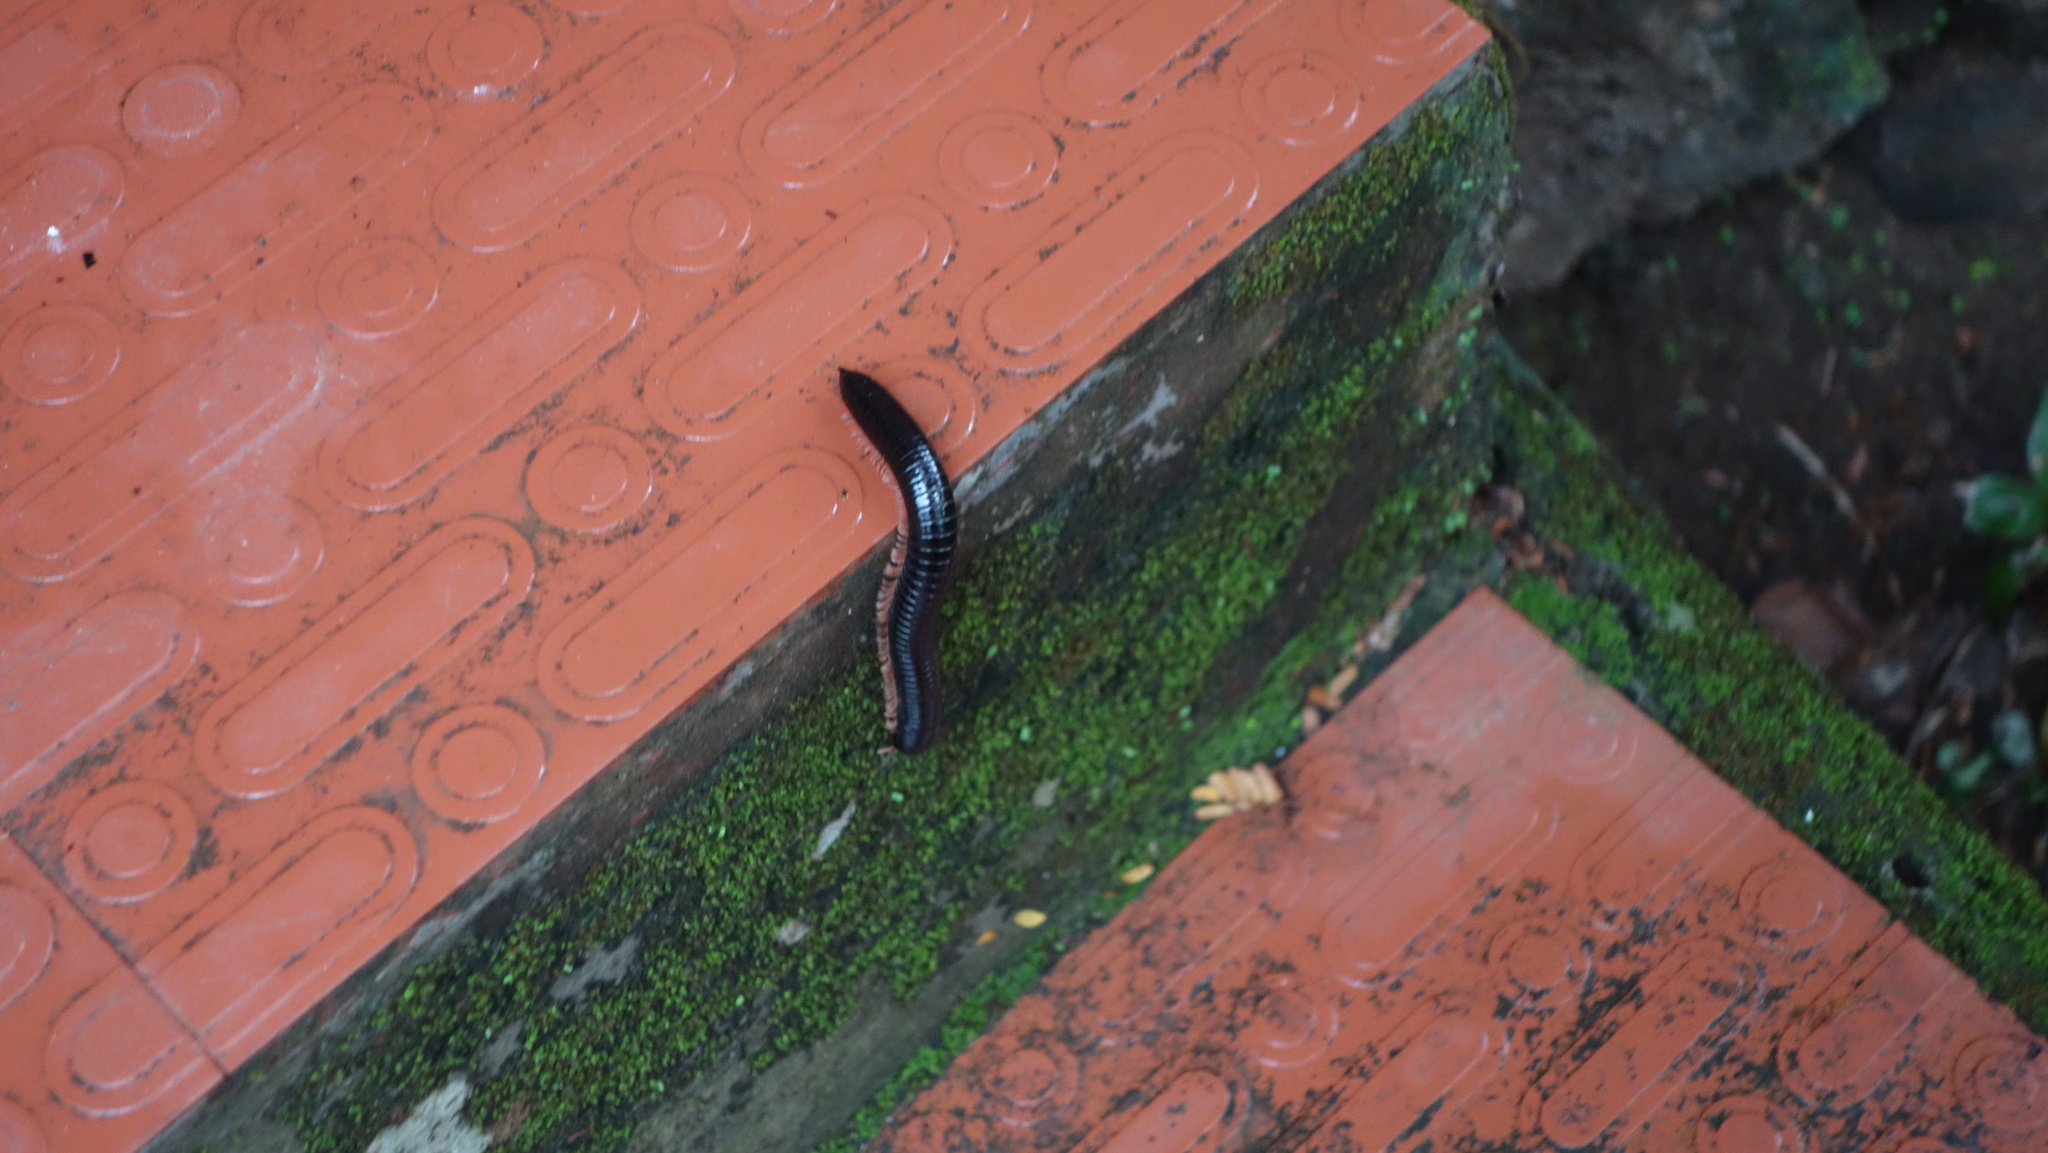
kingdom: Animalia
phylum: Arthropoda
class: Diplopoda
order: Spirostreptida
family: Harpagophoridae
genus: Phyllogonostreptus
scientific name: Phyllogonostreptus nigrolabiatus
